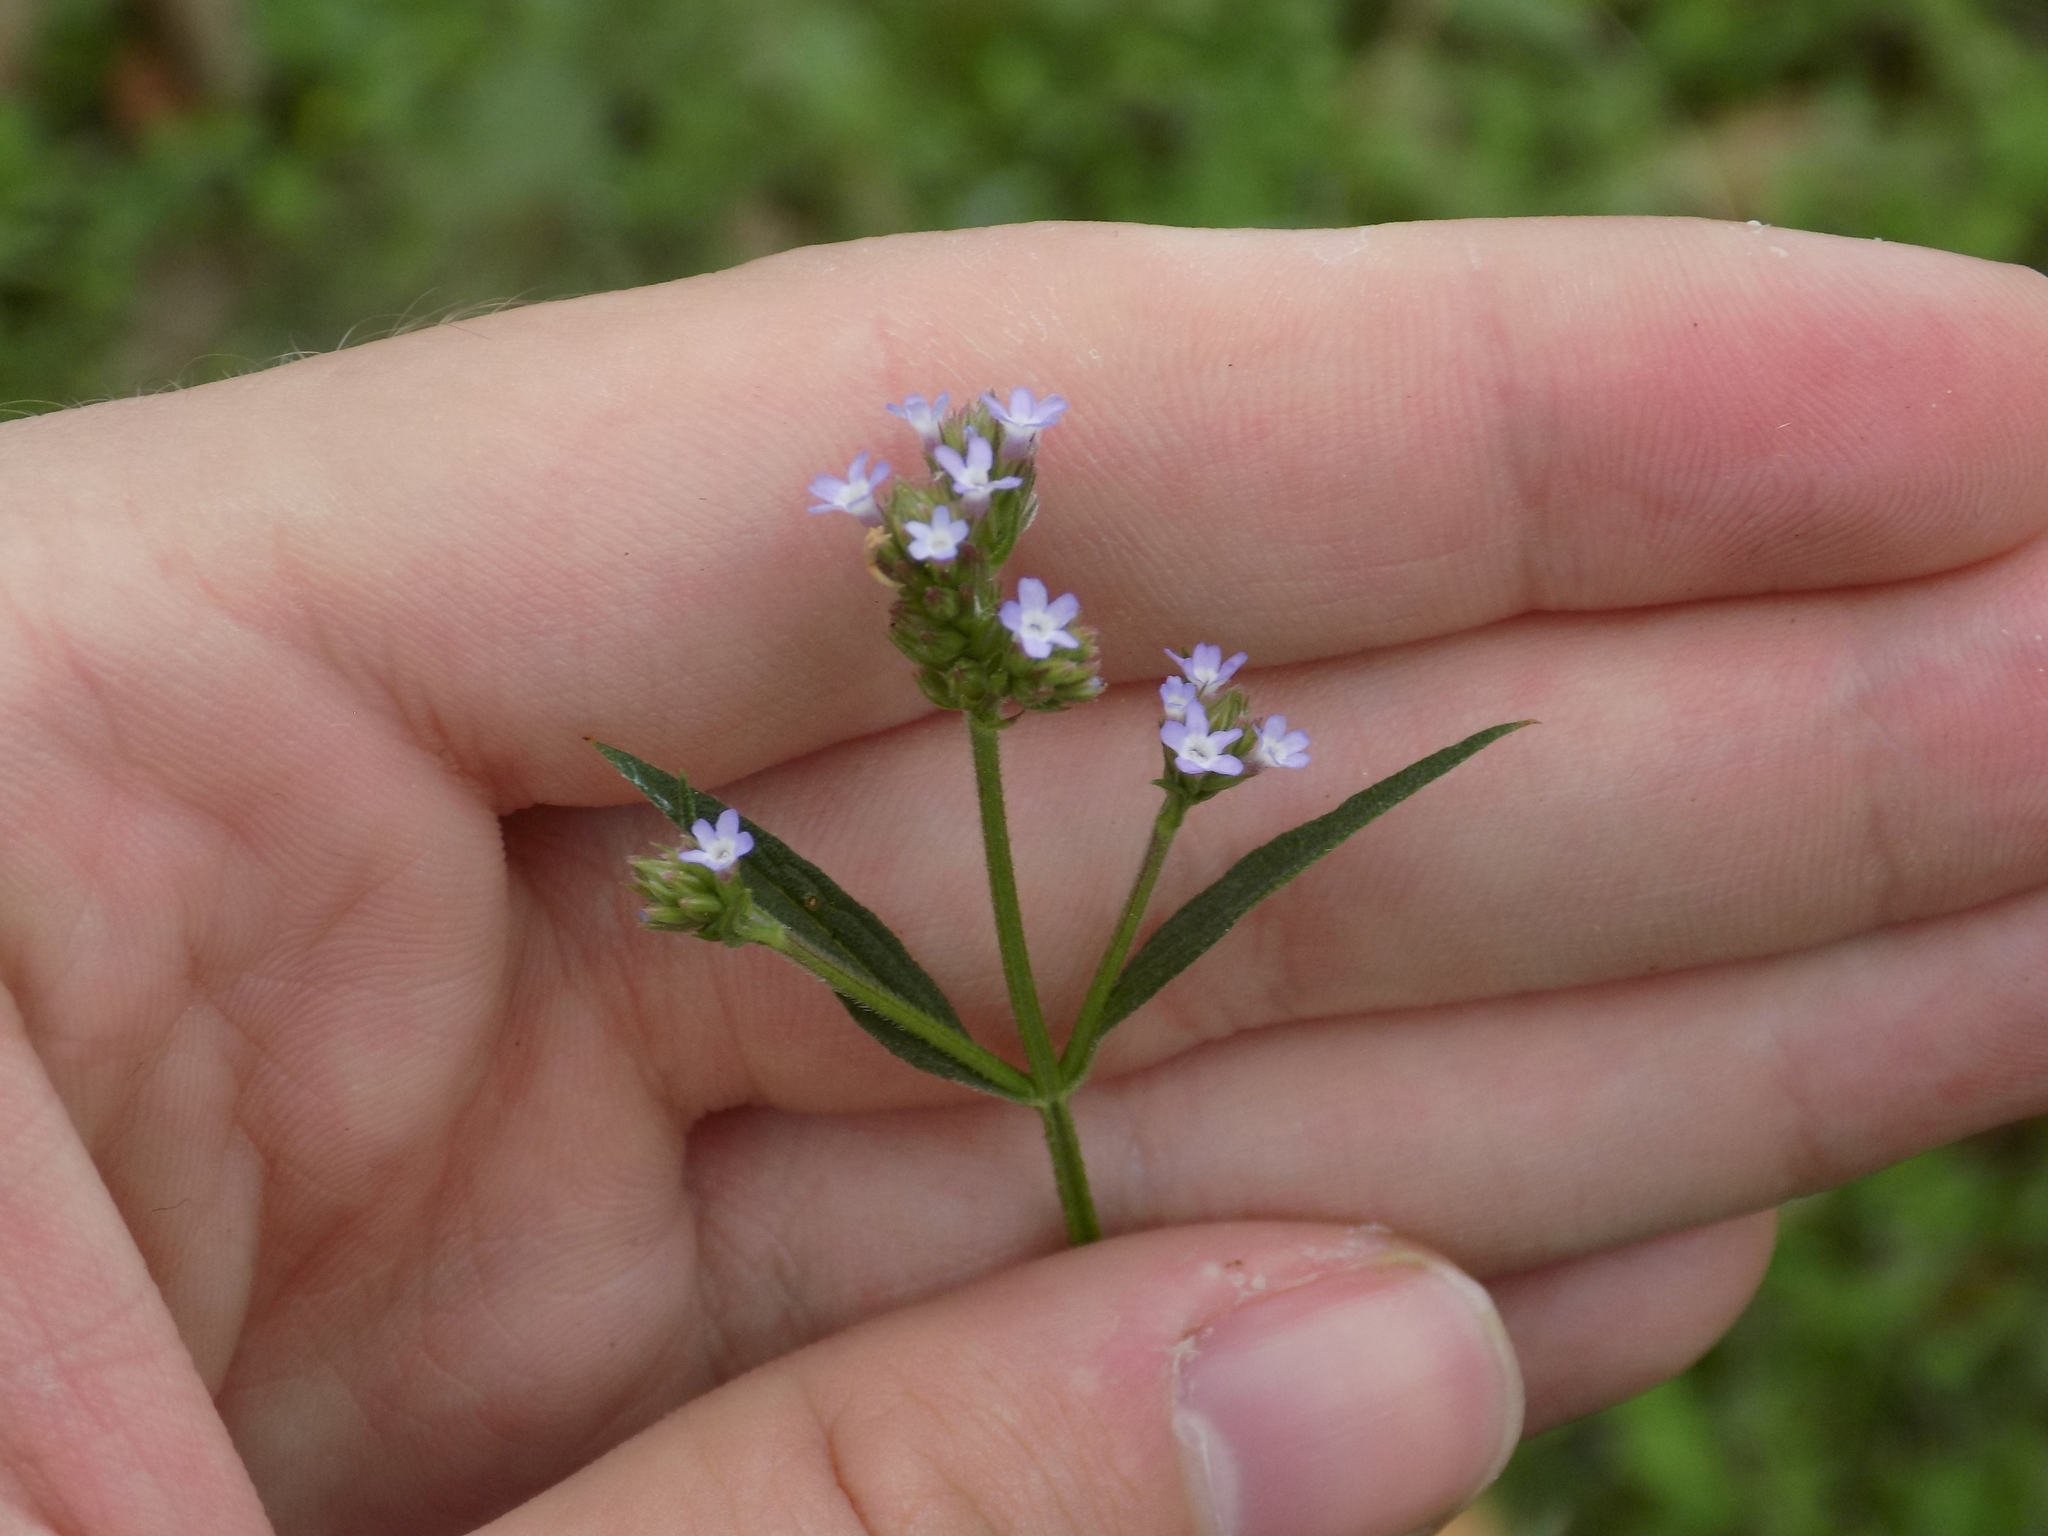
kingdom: Plantae
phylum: Tracheophyta
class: Magnoliopsida
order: Lamiales
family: Verbenaceae
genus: Verbena
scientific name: Verbena brasiliensis
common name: Brazilian vervain
